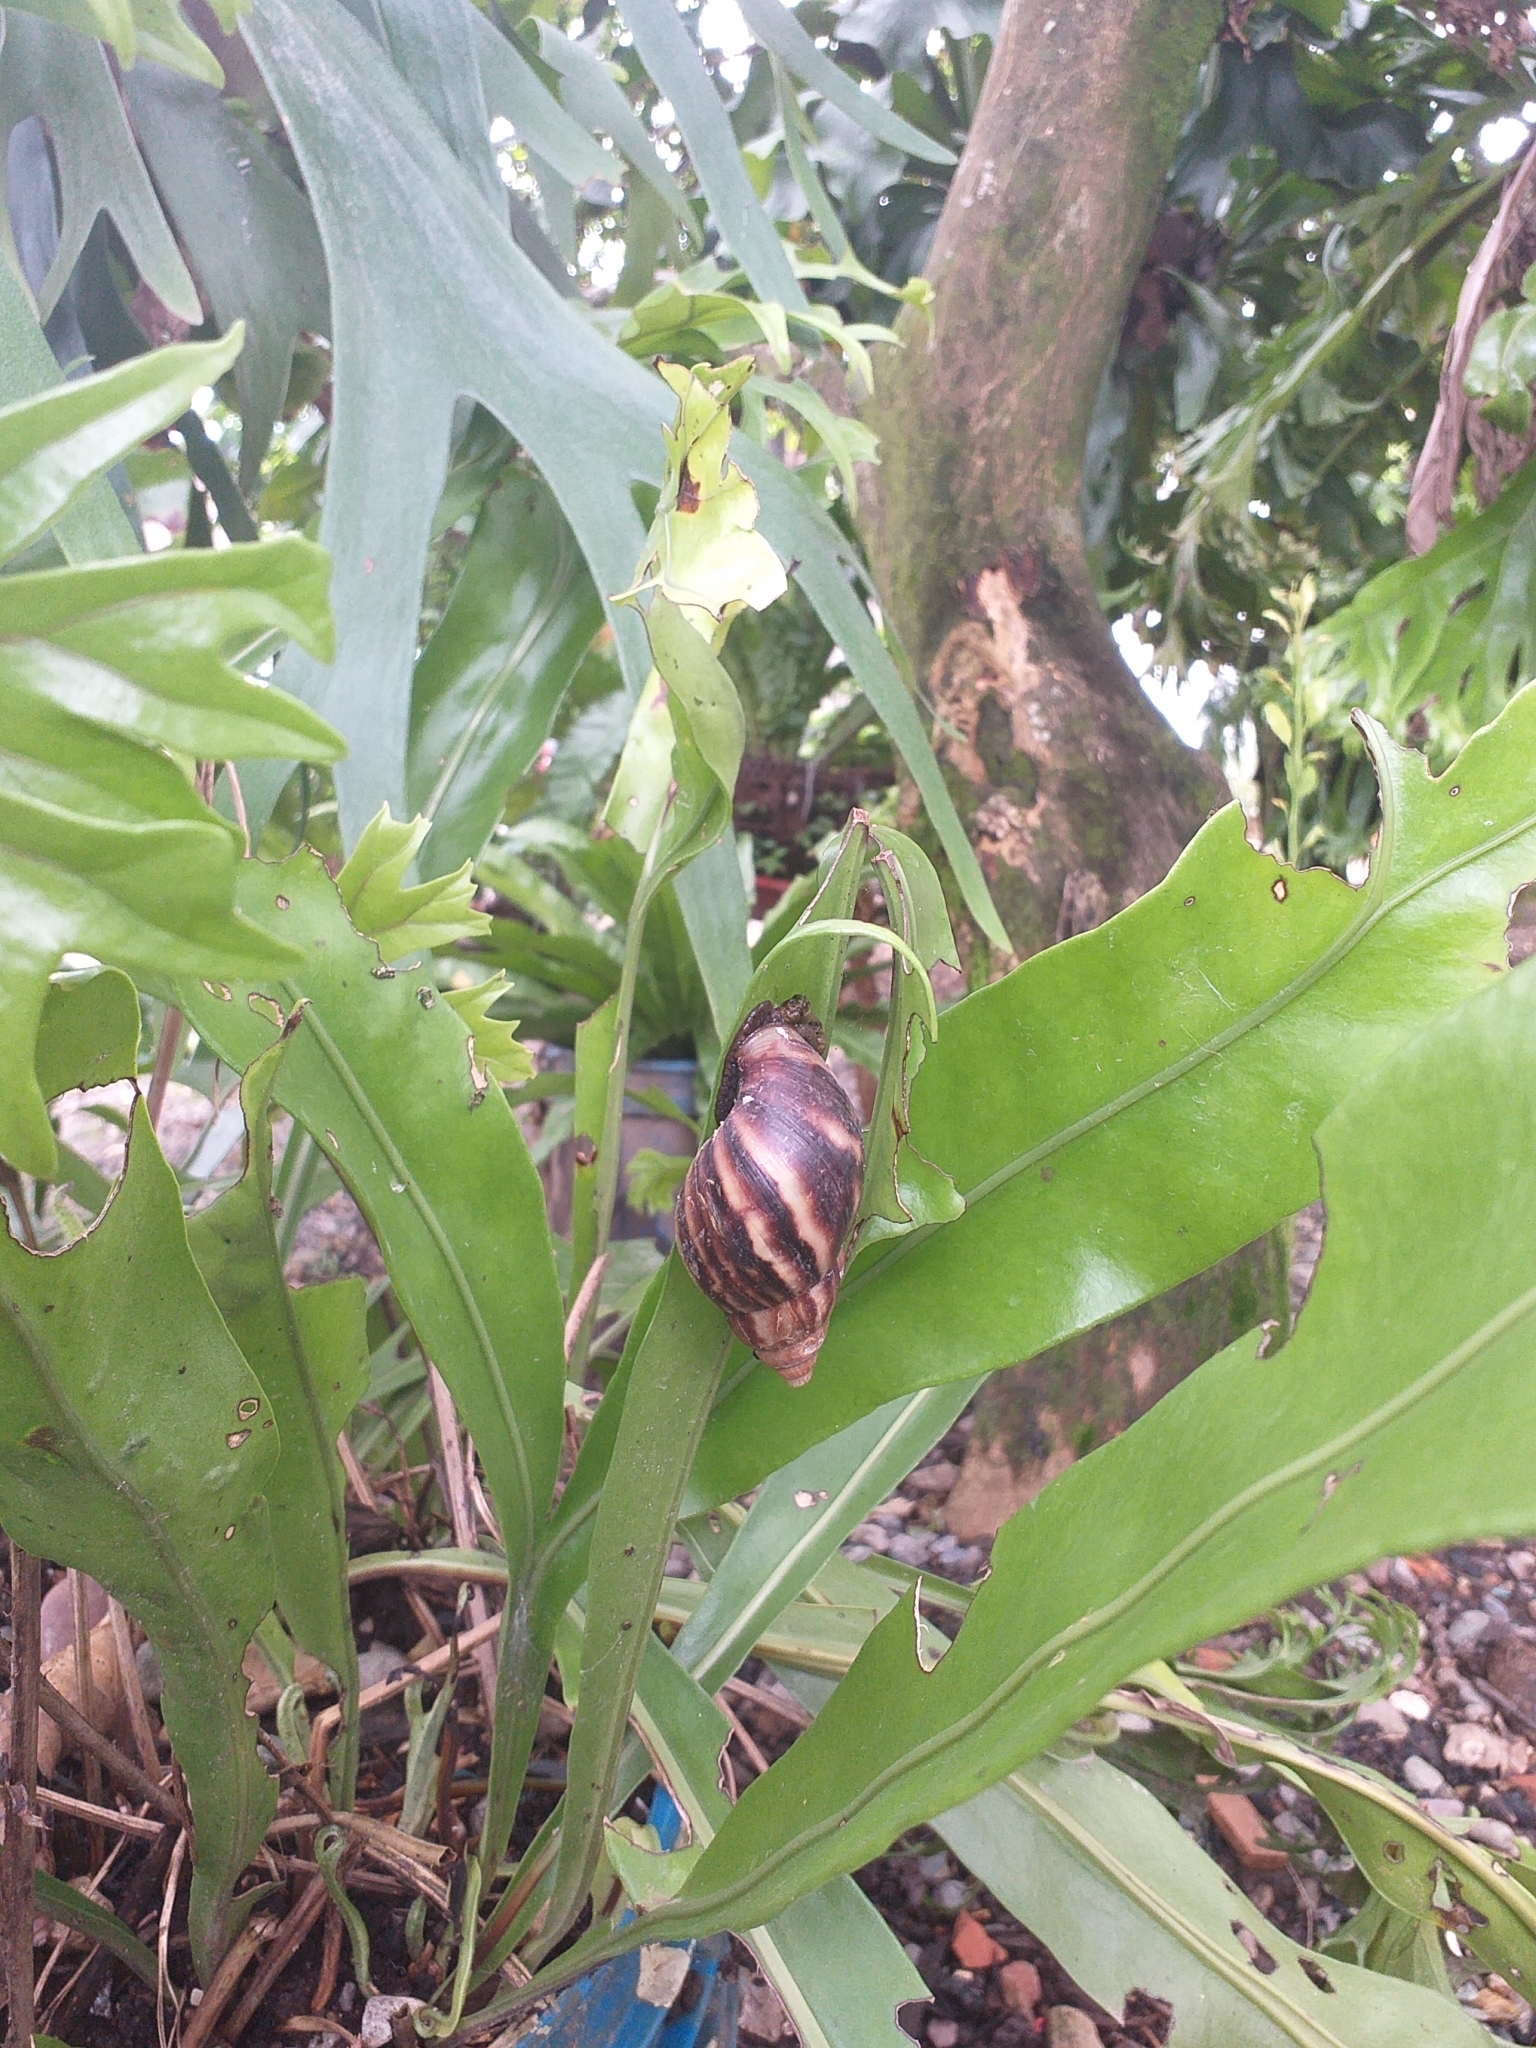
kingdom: Animalia
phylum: Mollusca
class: Gastropoda
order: Stylommatophora
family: Achatinidae
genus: Lissachatina
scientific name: Lissachatina fulica
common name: Giant african snail
